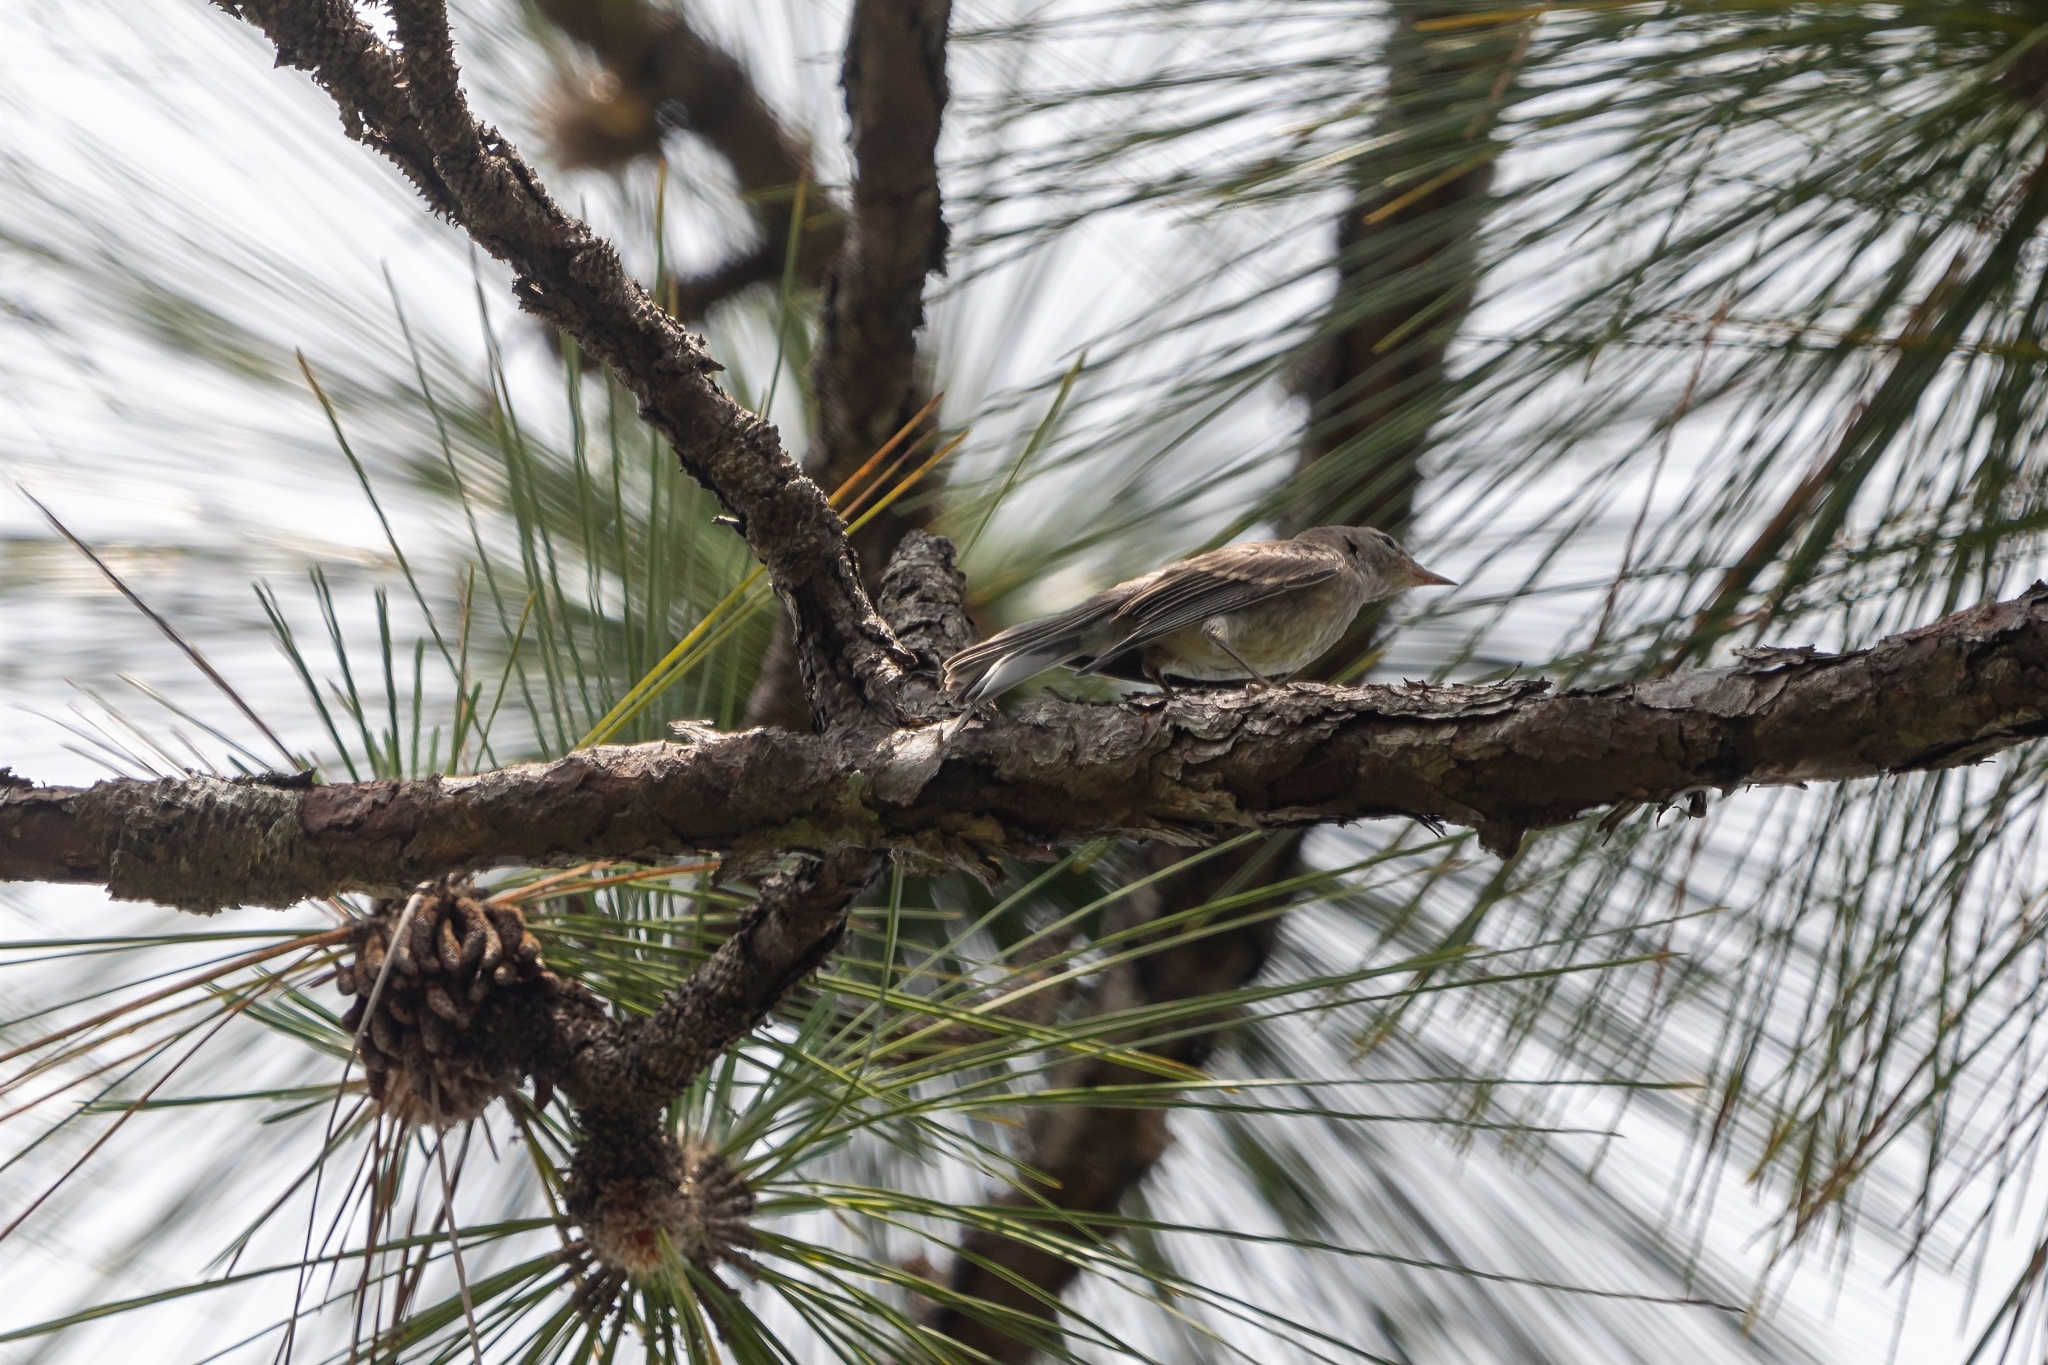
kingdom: Animalia
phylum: Chordata
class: Aves
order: Passeriformes
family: Mimidae
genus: Mimus
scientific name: Mimus polyglottos
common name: Northern mockingbird
